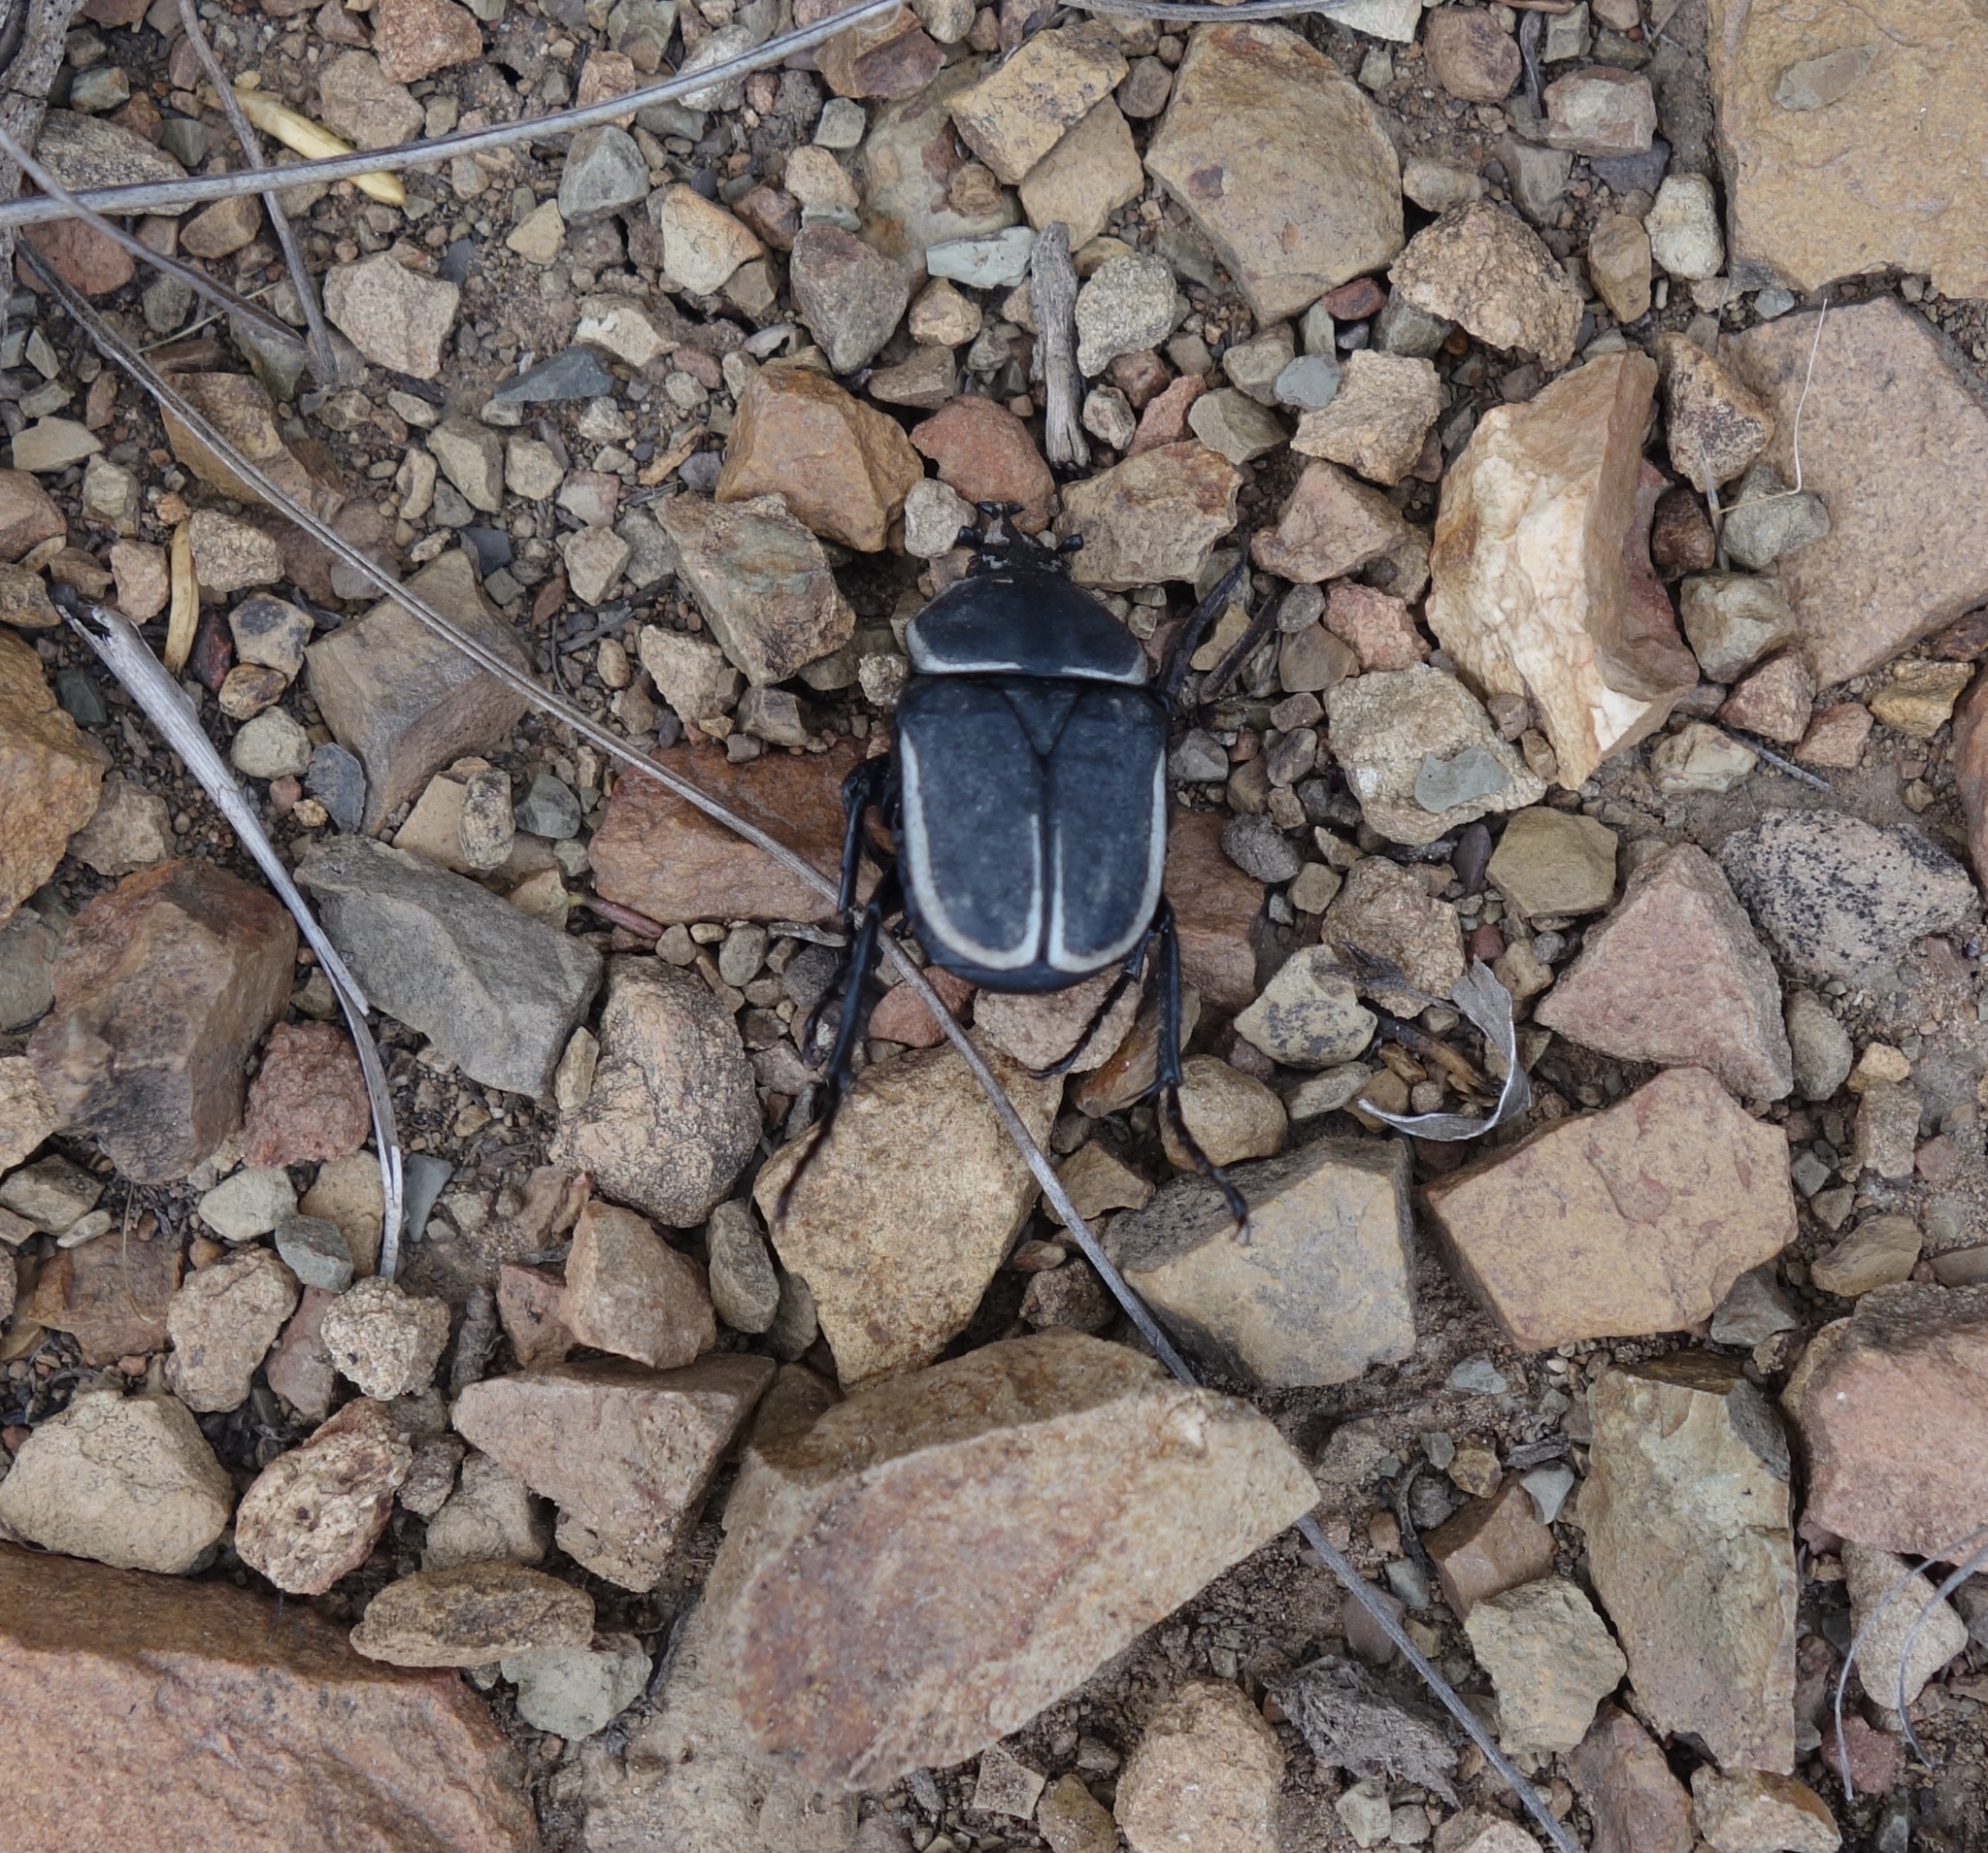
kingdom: Animalia
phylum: Arthropoda
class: Insecta
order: Coleoptera
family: Scarabaeidae
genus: Ichnestoma
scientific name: Ichnestoma rostrata
